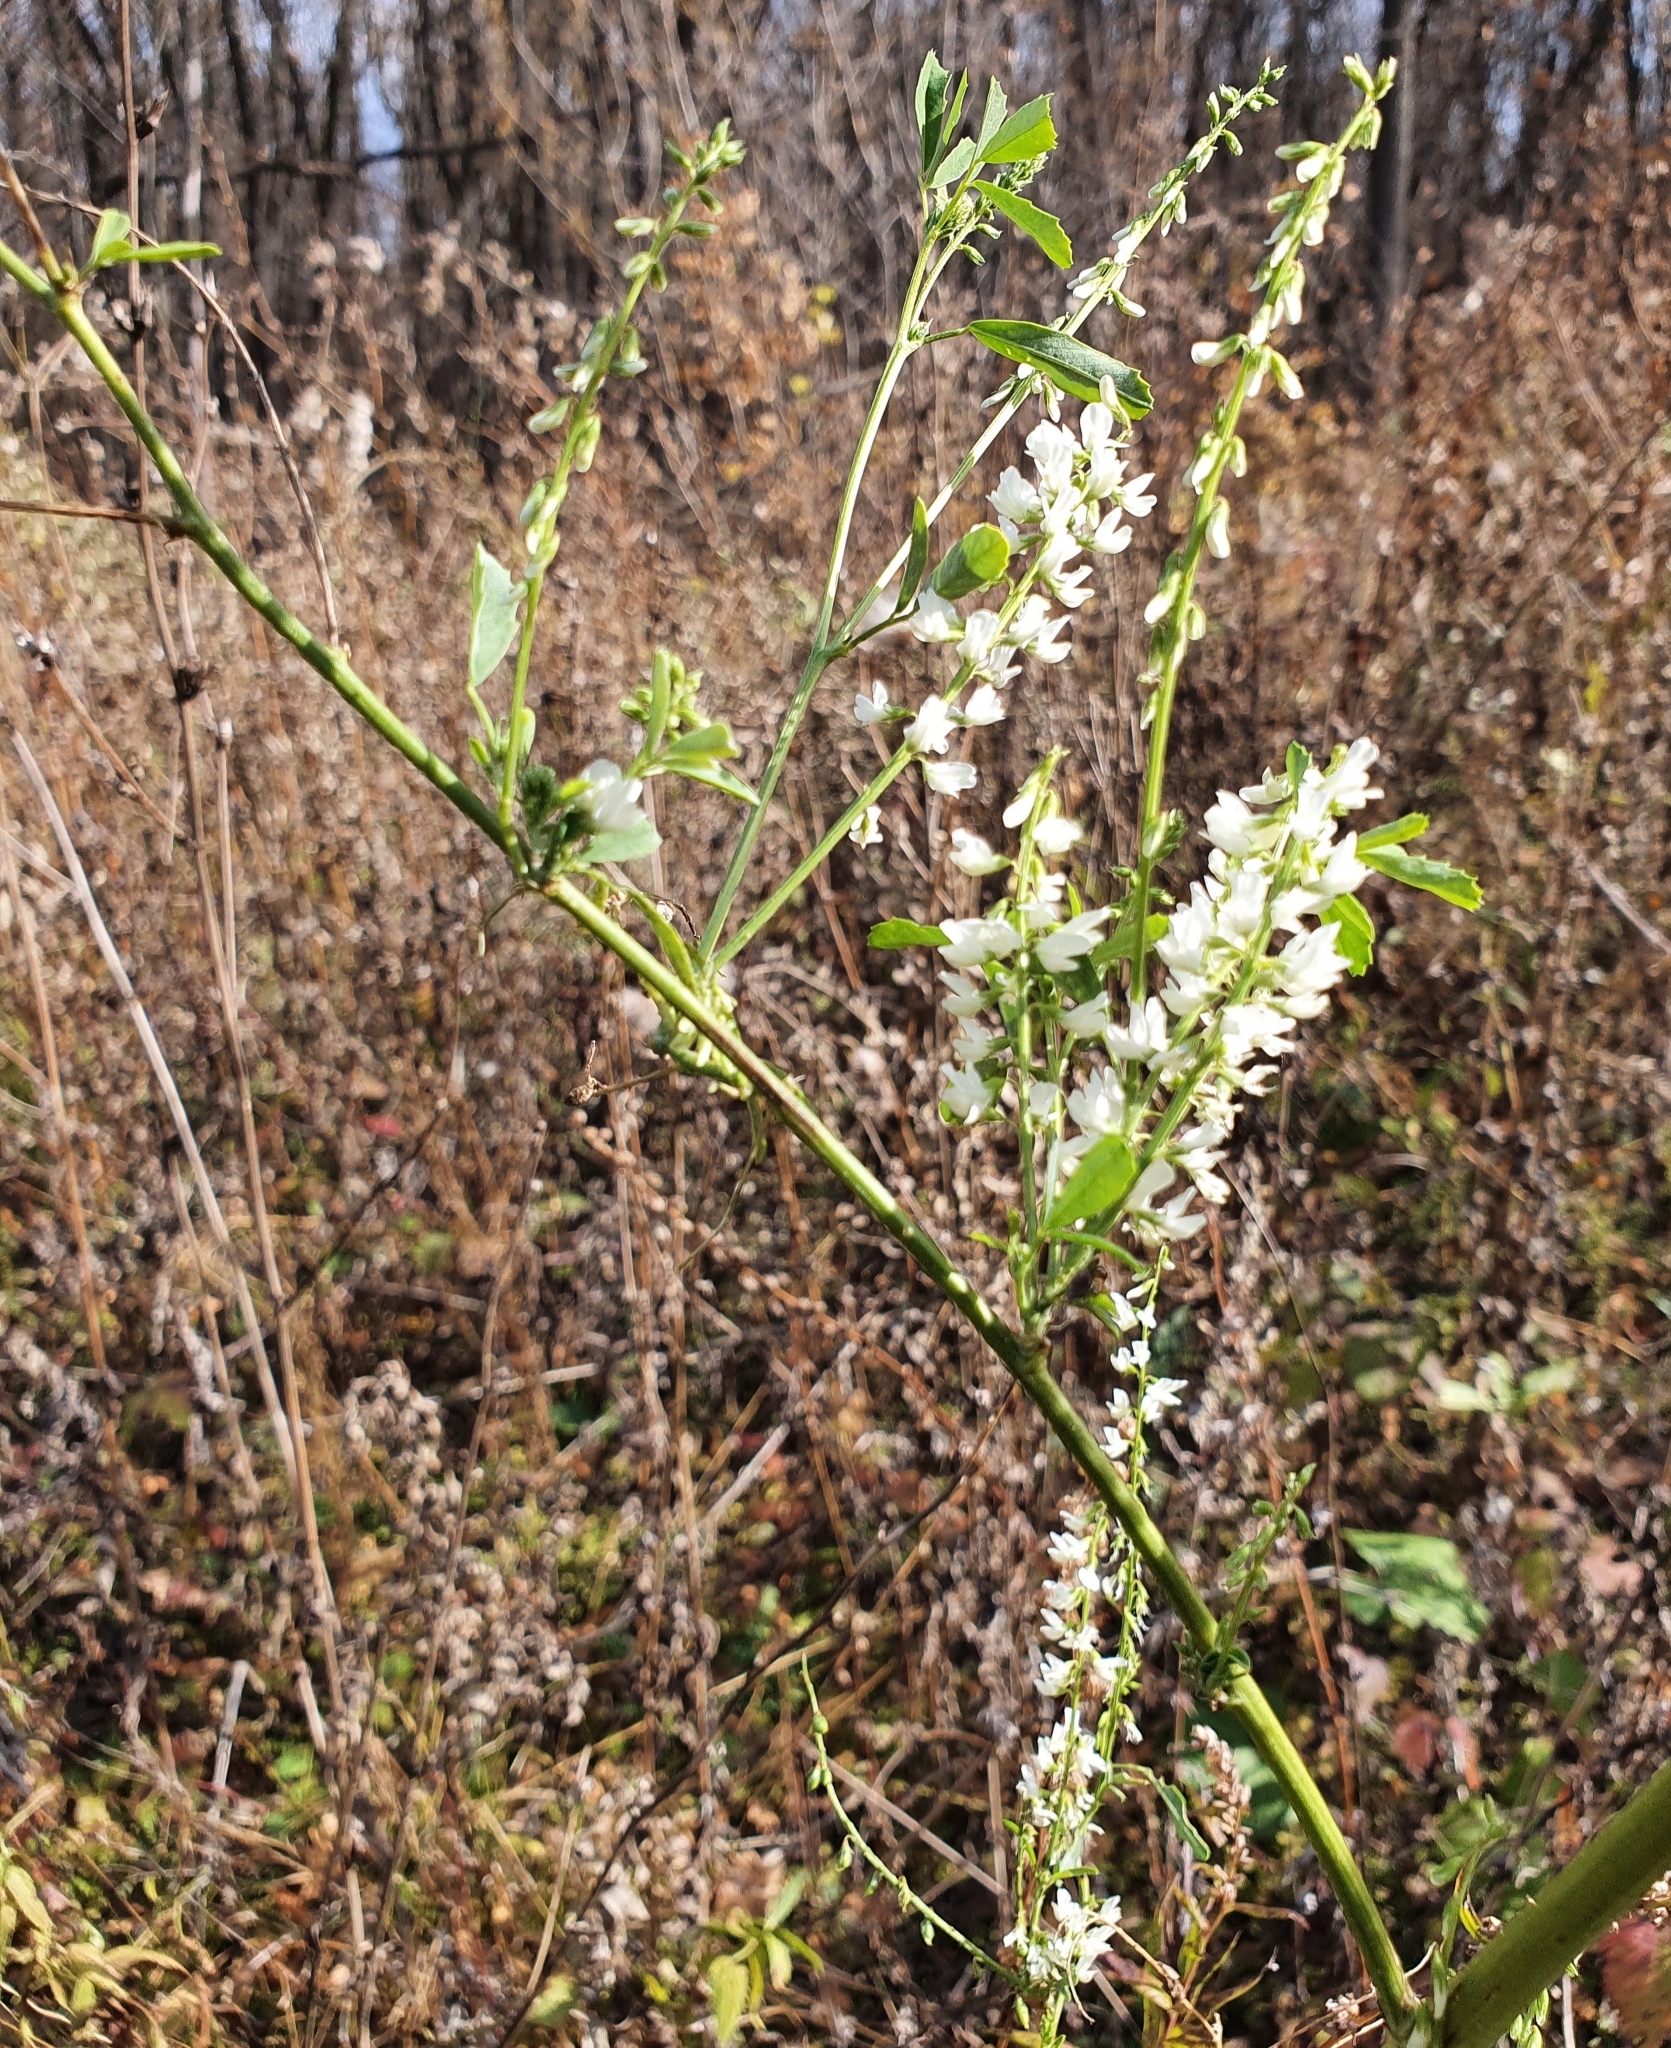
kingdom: Plantae
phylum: Tracheophyta
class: Magnoliopsida
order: Fabales
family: Fabaceae
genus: Melilotus
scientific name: Melilotus albus
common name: White melilot
